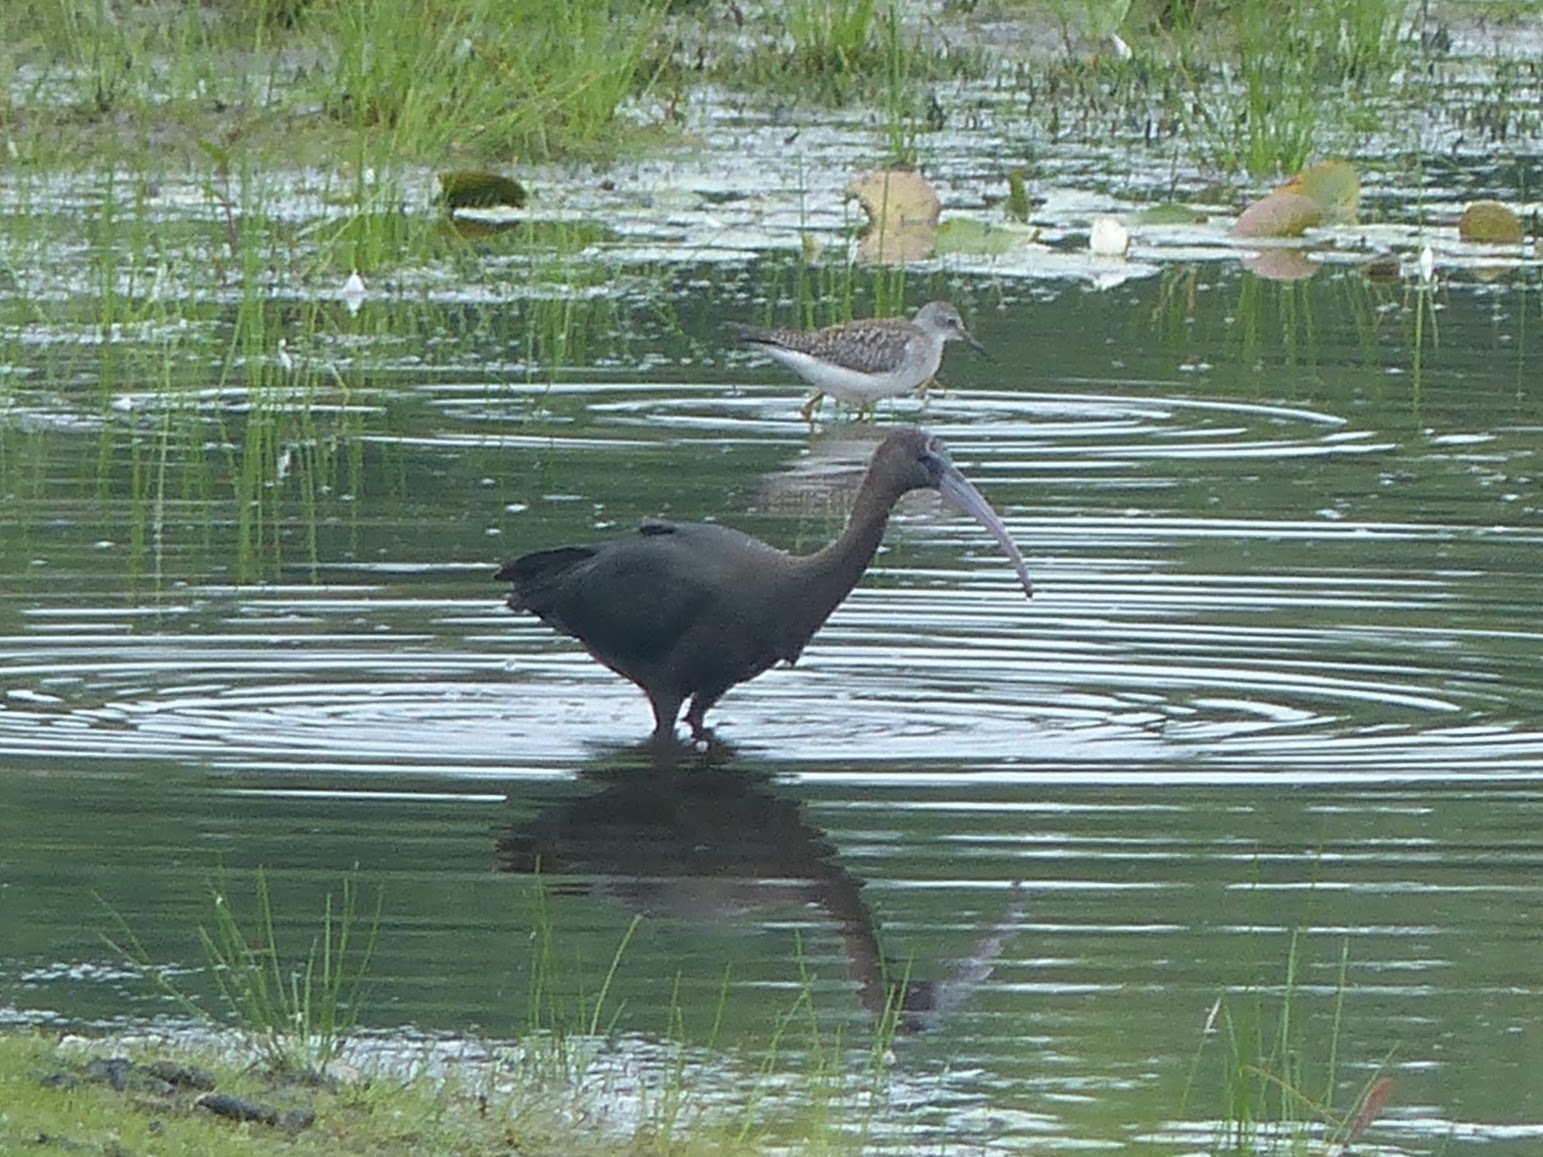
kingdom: Animalia
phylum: Chordata
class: Aves
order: Pelecaniformes
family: Threskiornithidae
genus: Plegadis
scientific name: Plegadis falcinellus
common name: Glossy ibis
